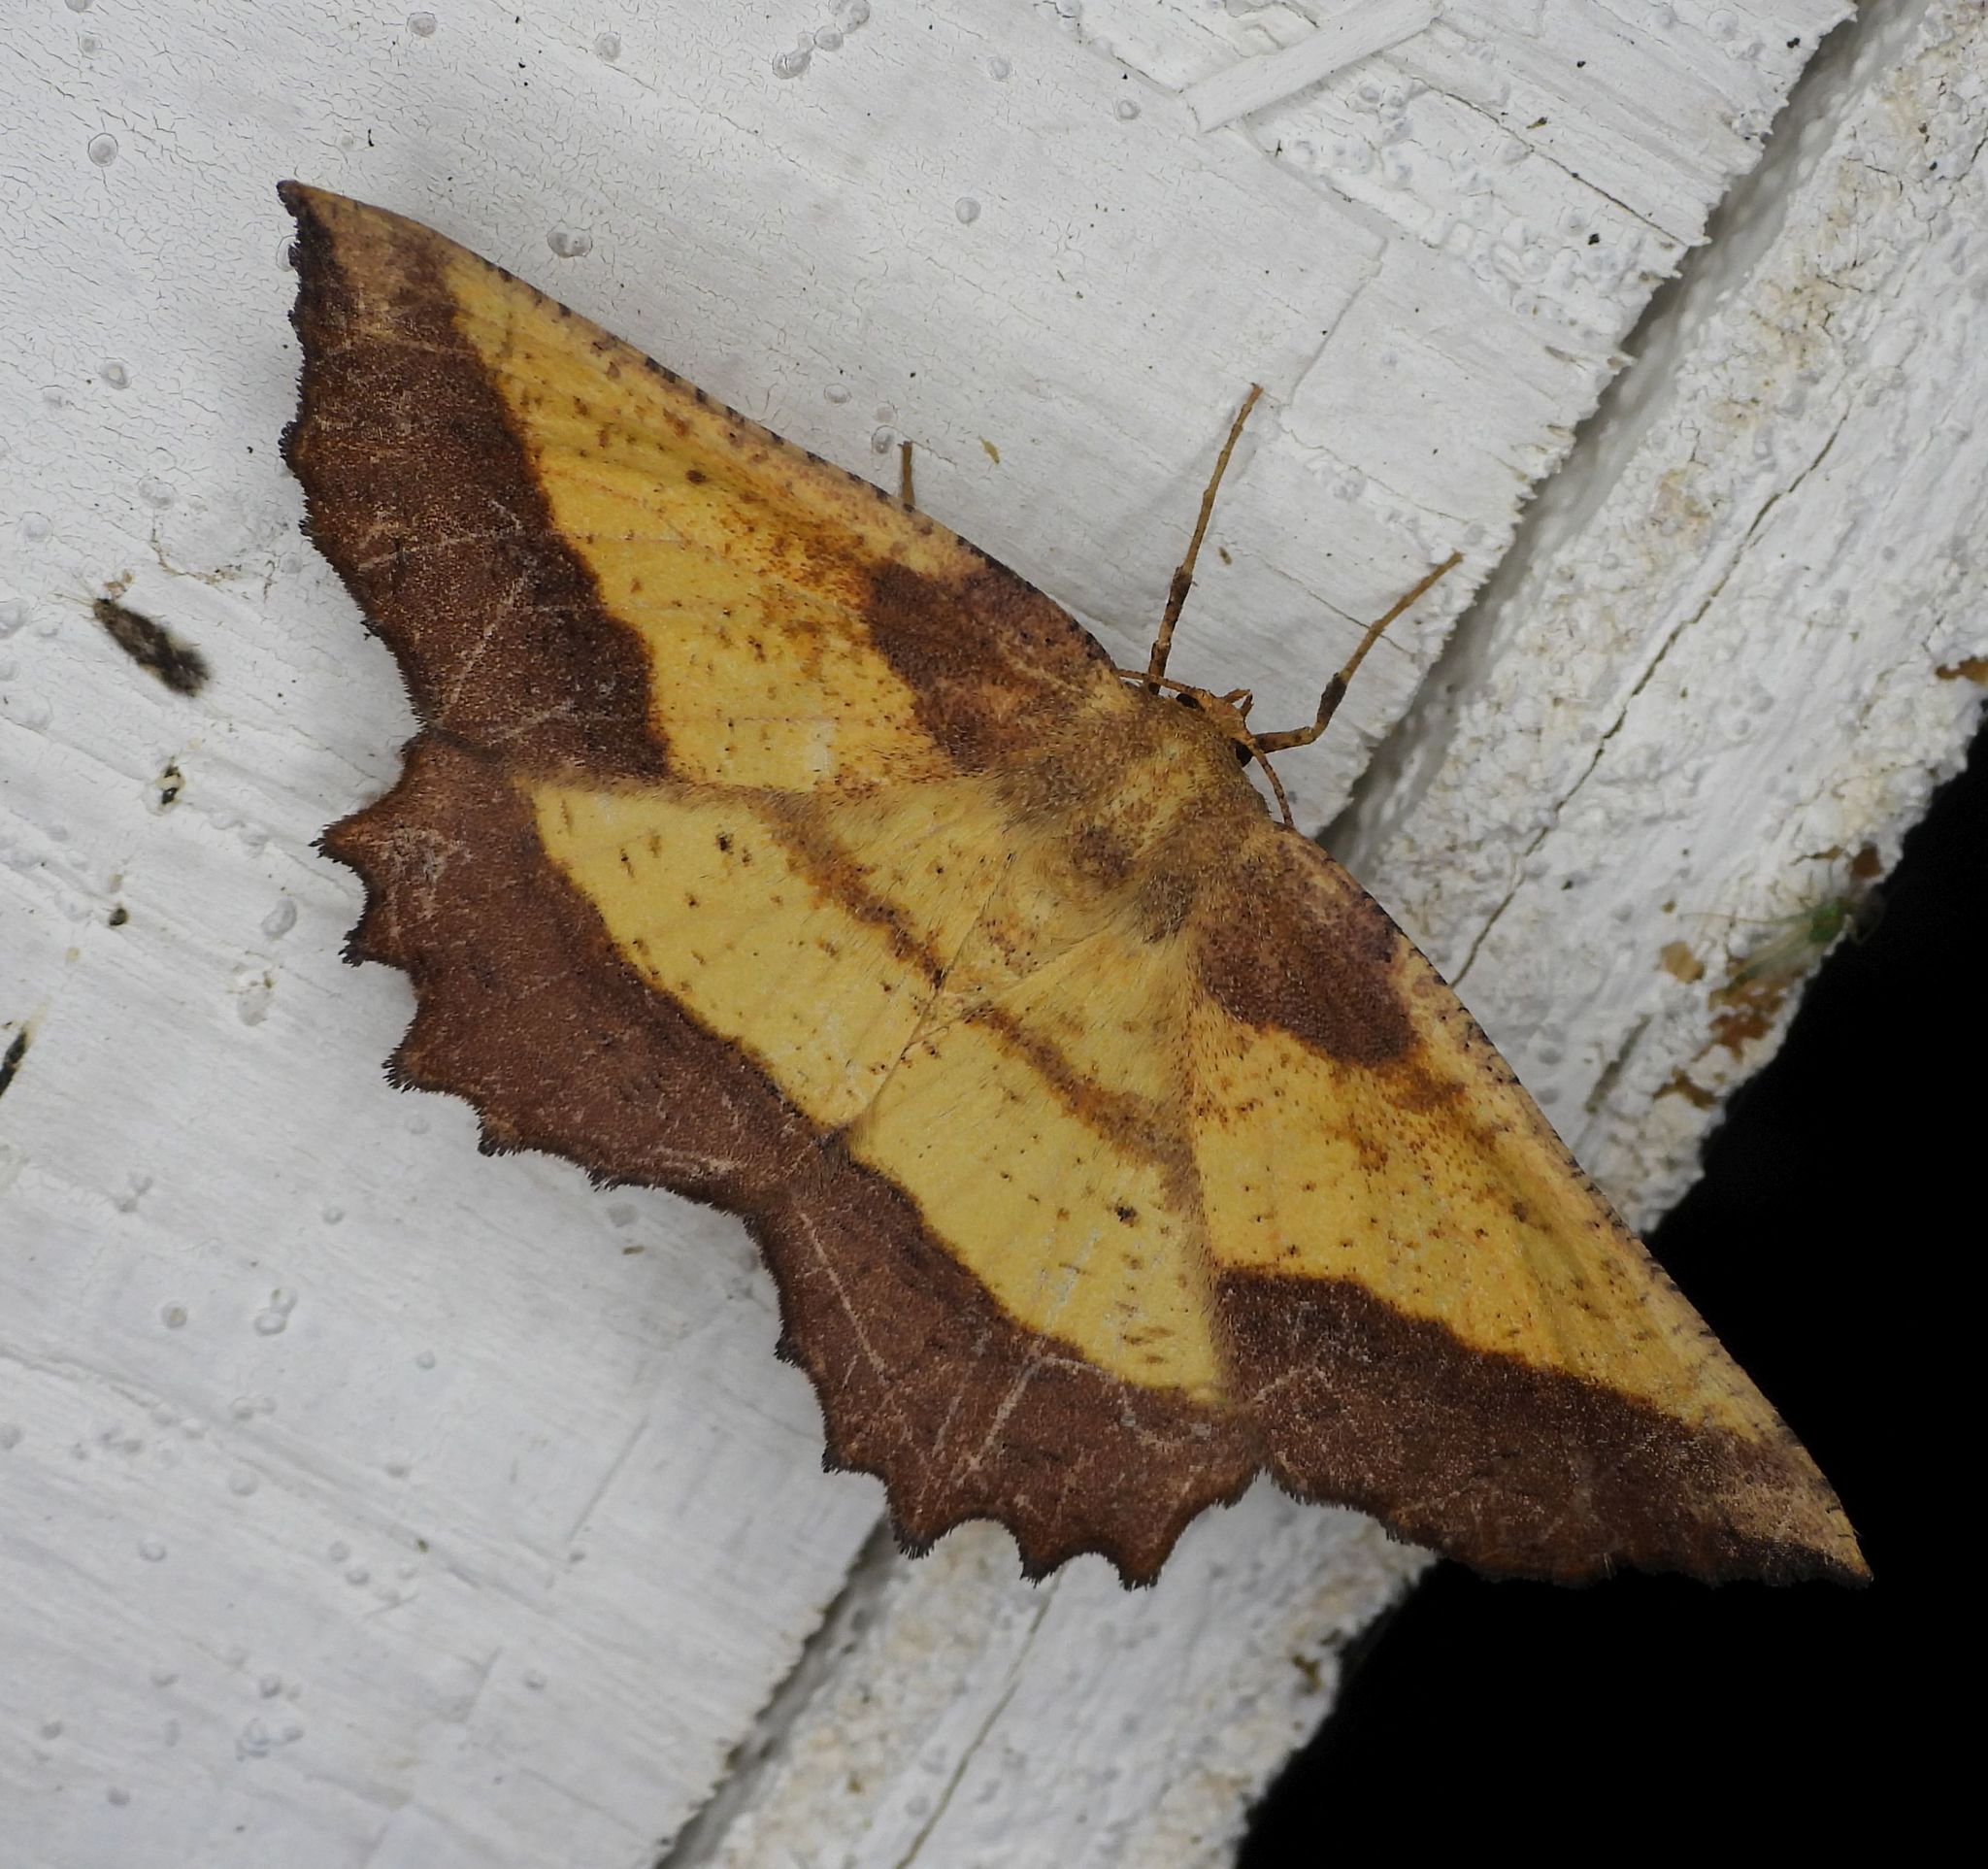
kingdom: Animalia
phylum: Arthropoda
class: Insecta
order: Lepidoptera
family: Geometridae
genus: Euchlaena
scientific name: Euchlaena serrata
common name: Saw wing
